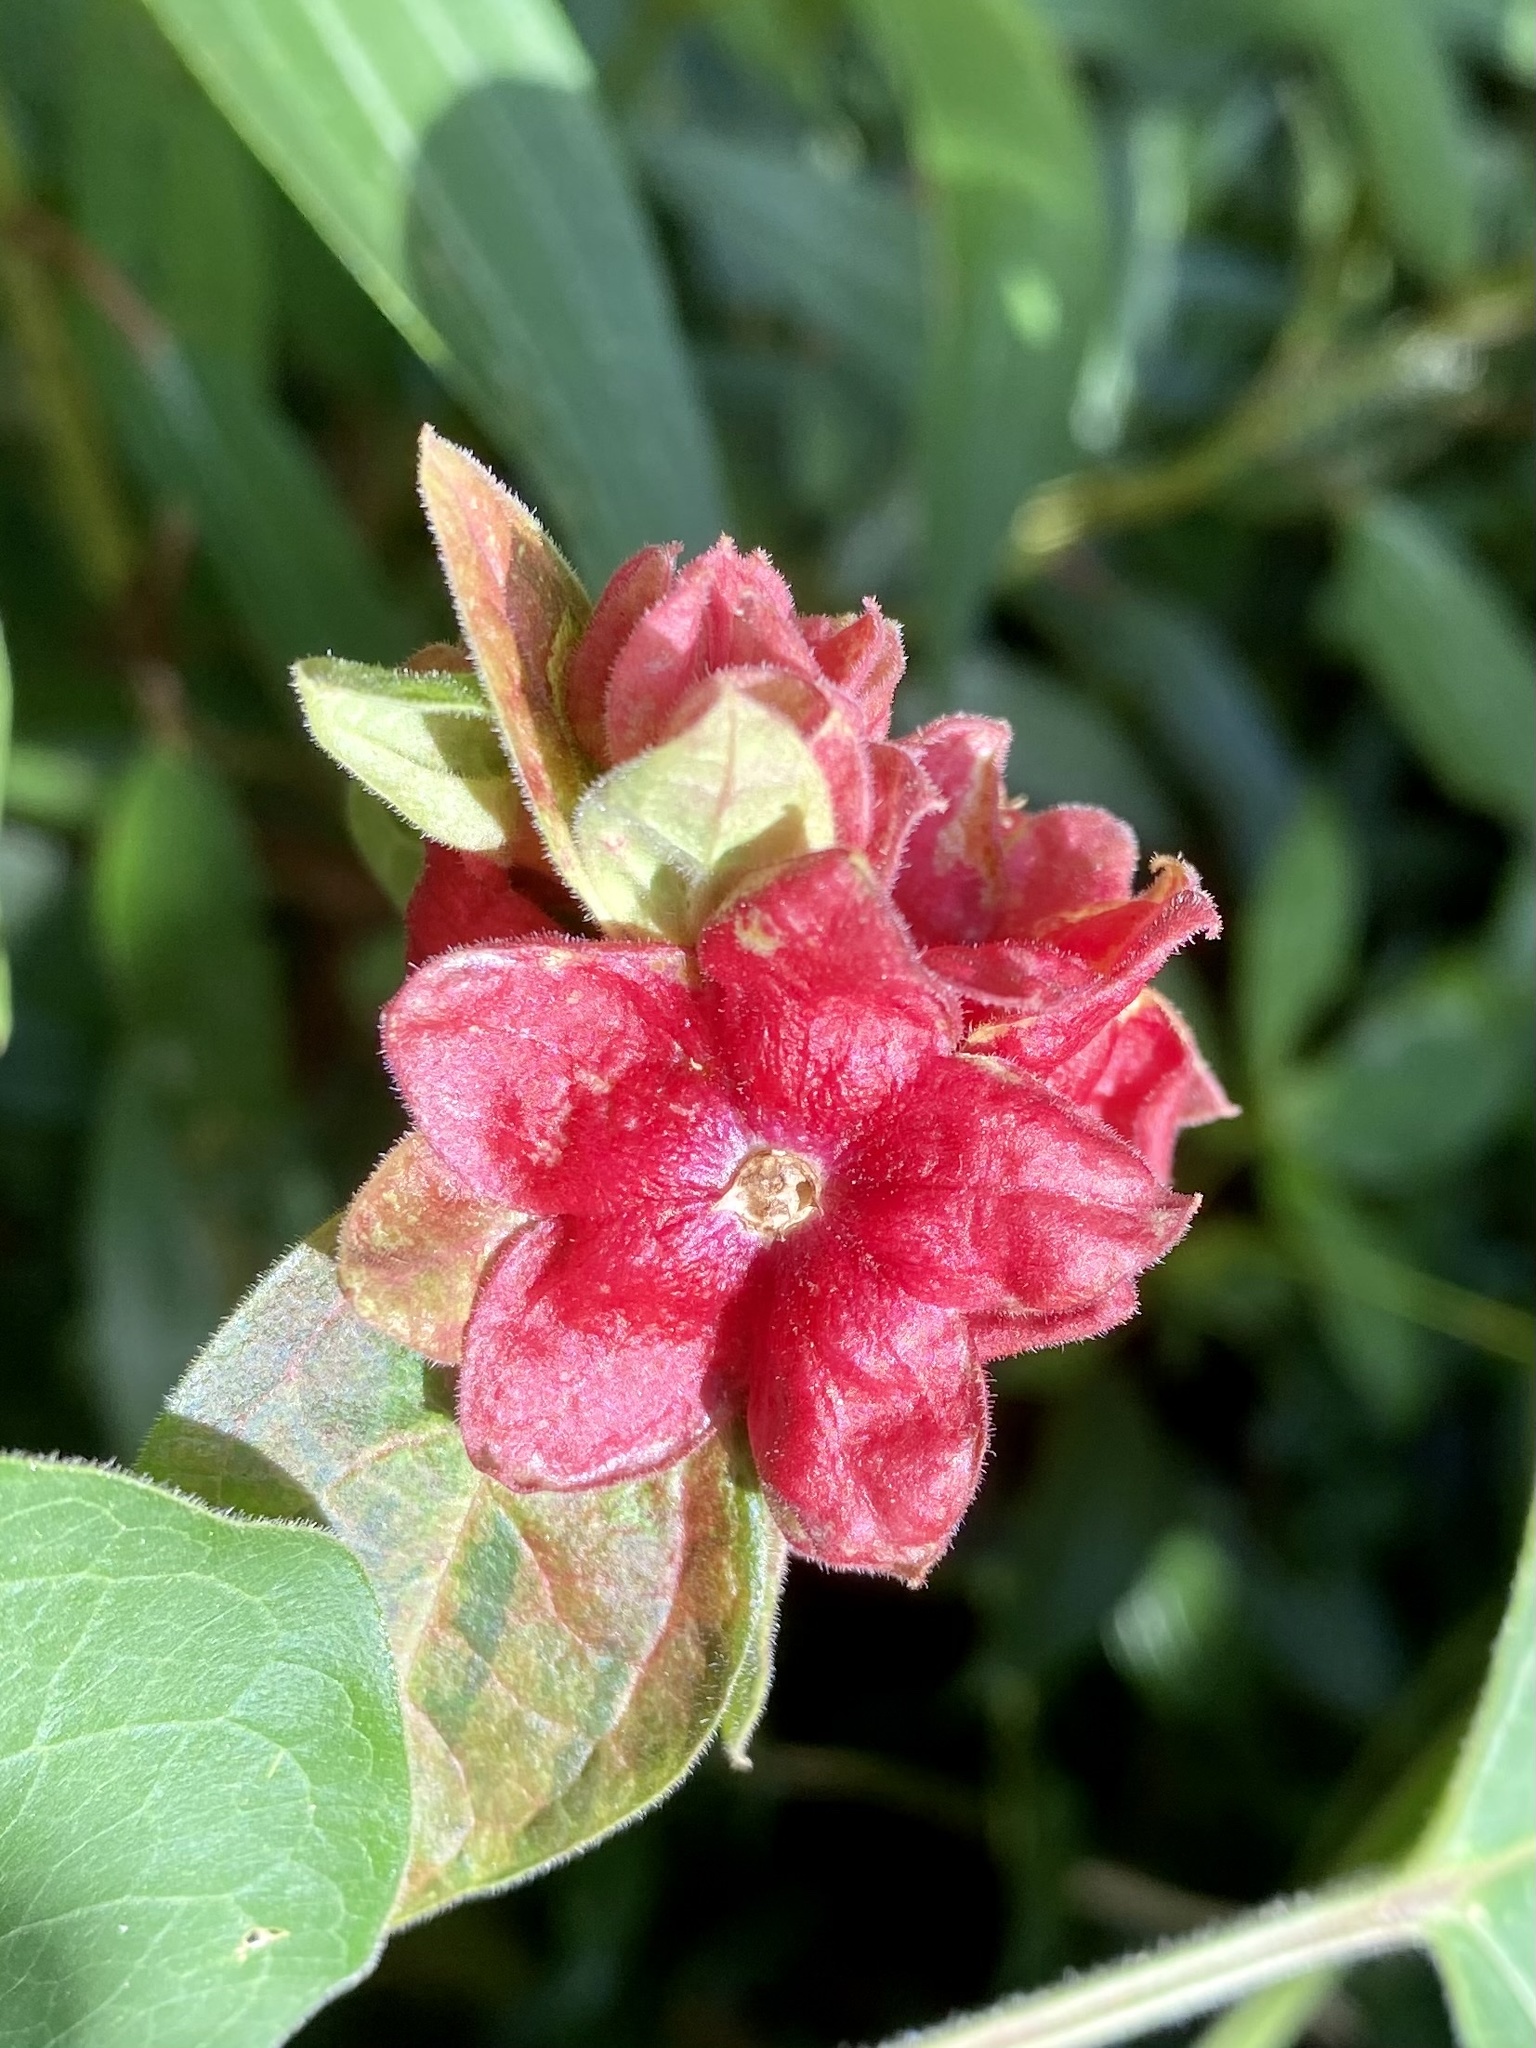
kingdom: Plantae
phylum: Tracheophyta
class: Magnoliopsida
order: Lamiales
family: Lamiaceae
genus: Clerodendrum
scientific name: Clerodendrum canescens
